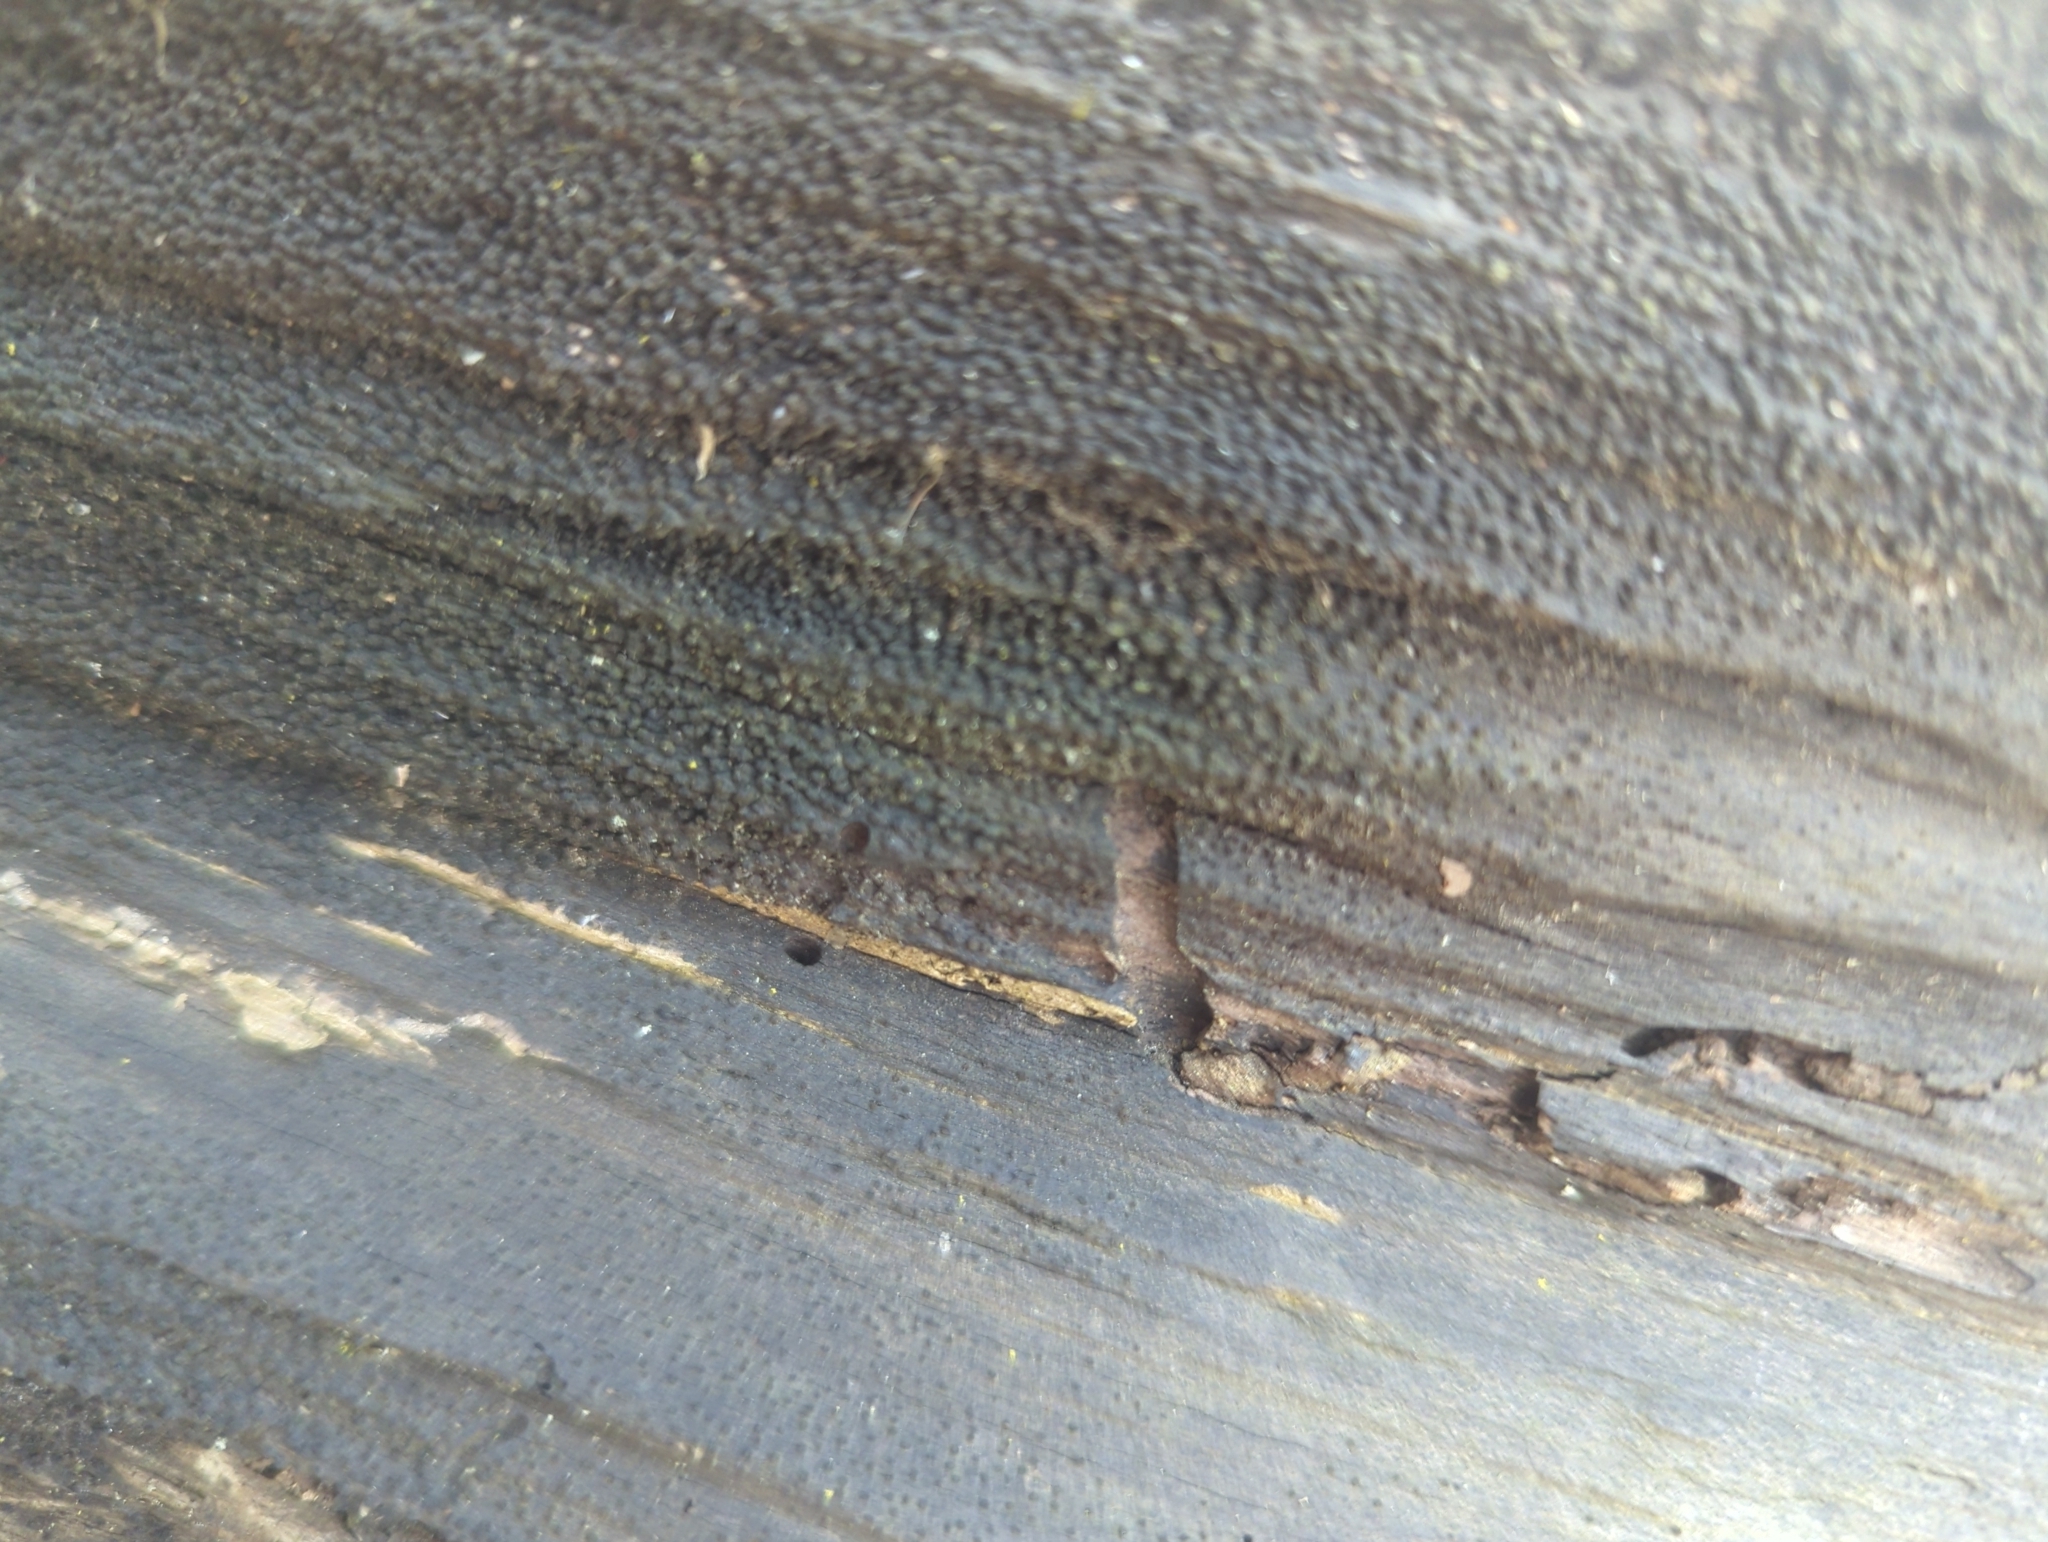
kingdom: Fungi
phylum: Ascomycota
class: Sordariomycetes
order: Xylariales
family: Diatrypaceae
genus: Eutypa
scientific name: Eutypa spinosa
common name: Spiral tarcrust
